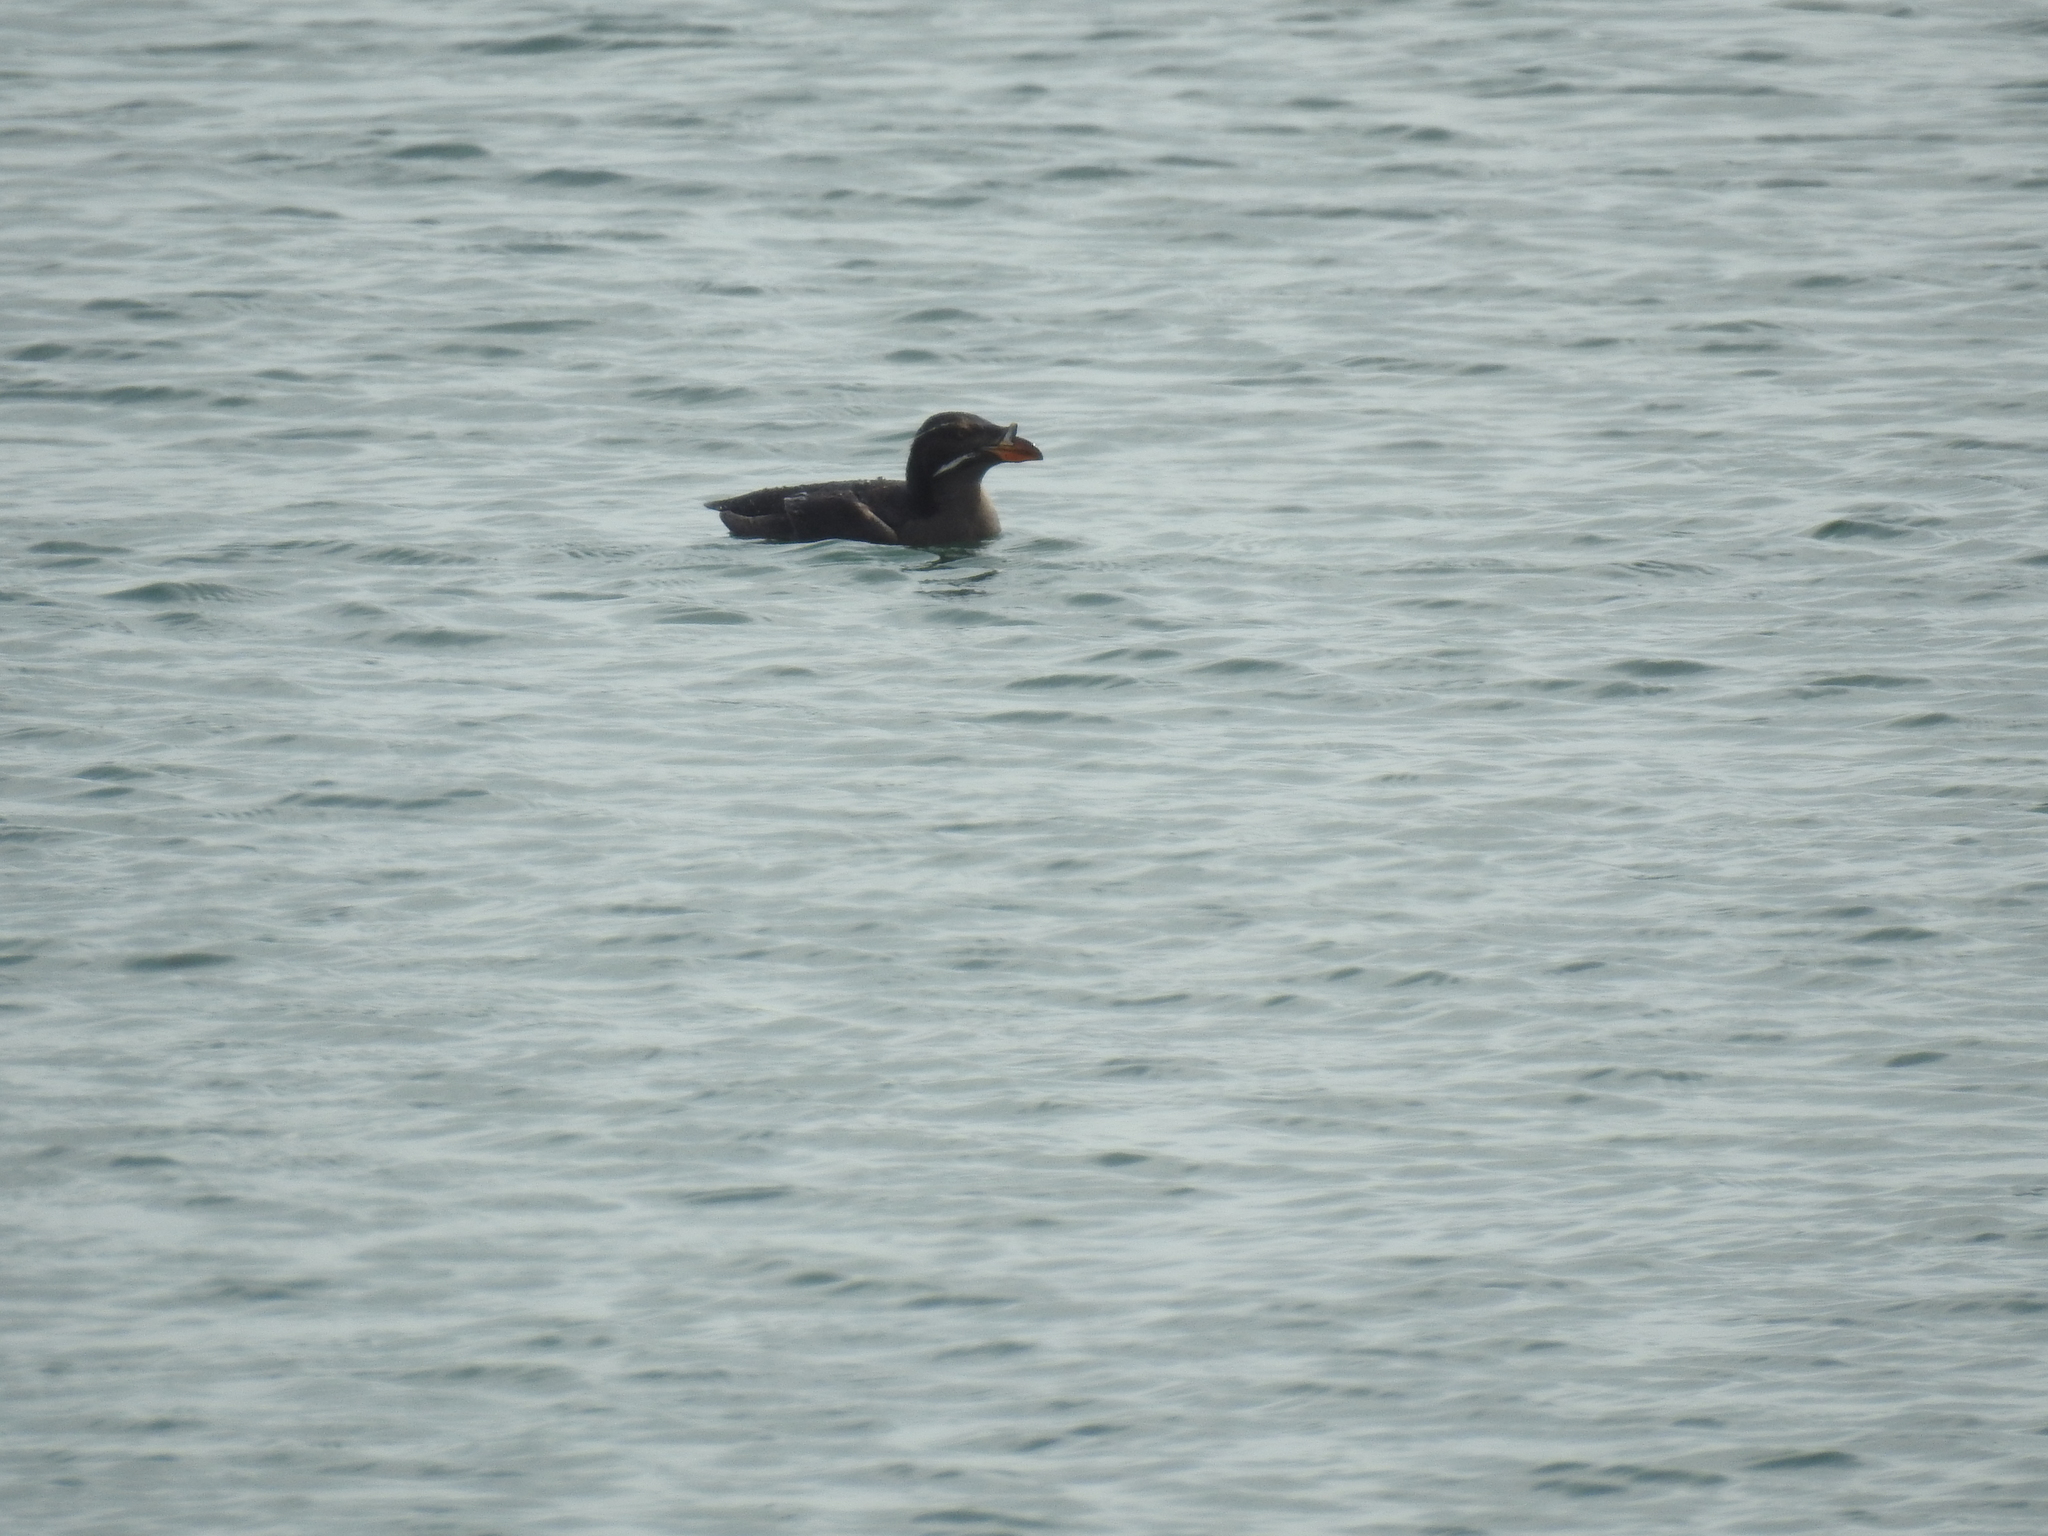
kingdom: Animalia
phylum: Chordata
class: Aves
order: Charadriiformes
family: Alcidae
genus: Cerorhinca
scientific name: Cerorhinca monocerata
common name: Rhinoceros auklet
